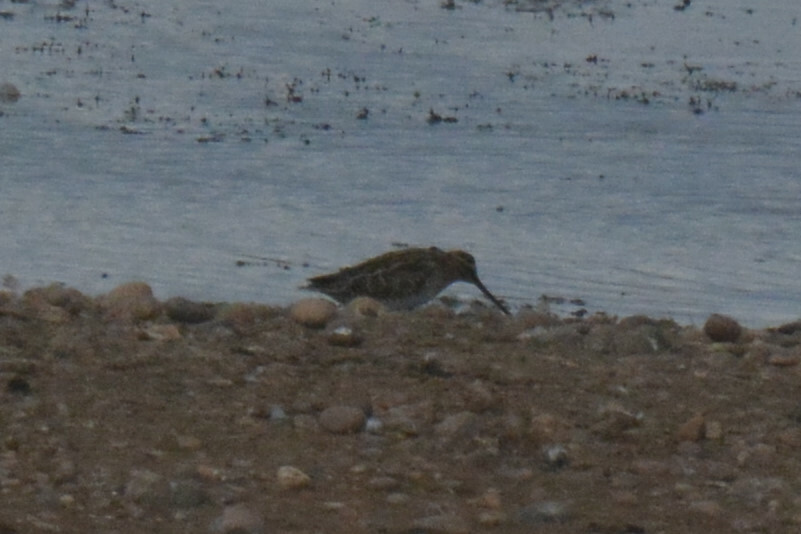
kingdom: Animalia
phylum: Chordata
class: Aves
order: Charadriiformes
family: Scolopacidae
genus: Gallinago
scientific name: Gallinago gallinago
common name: Common snipe
